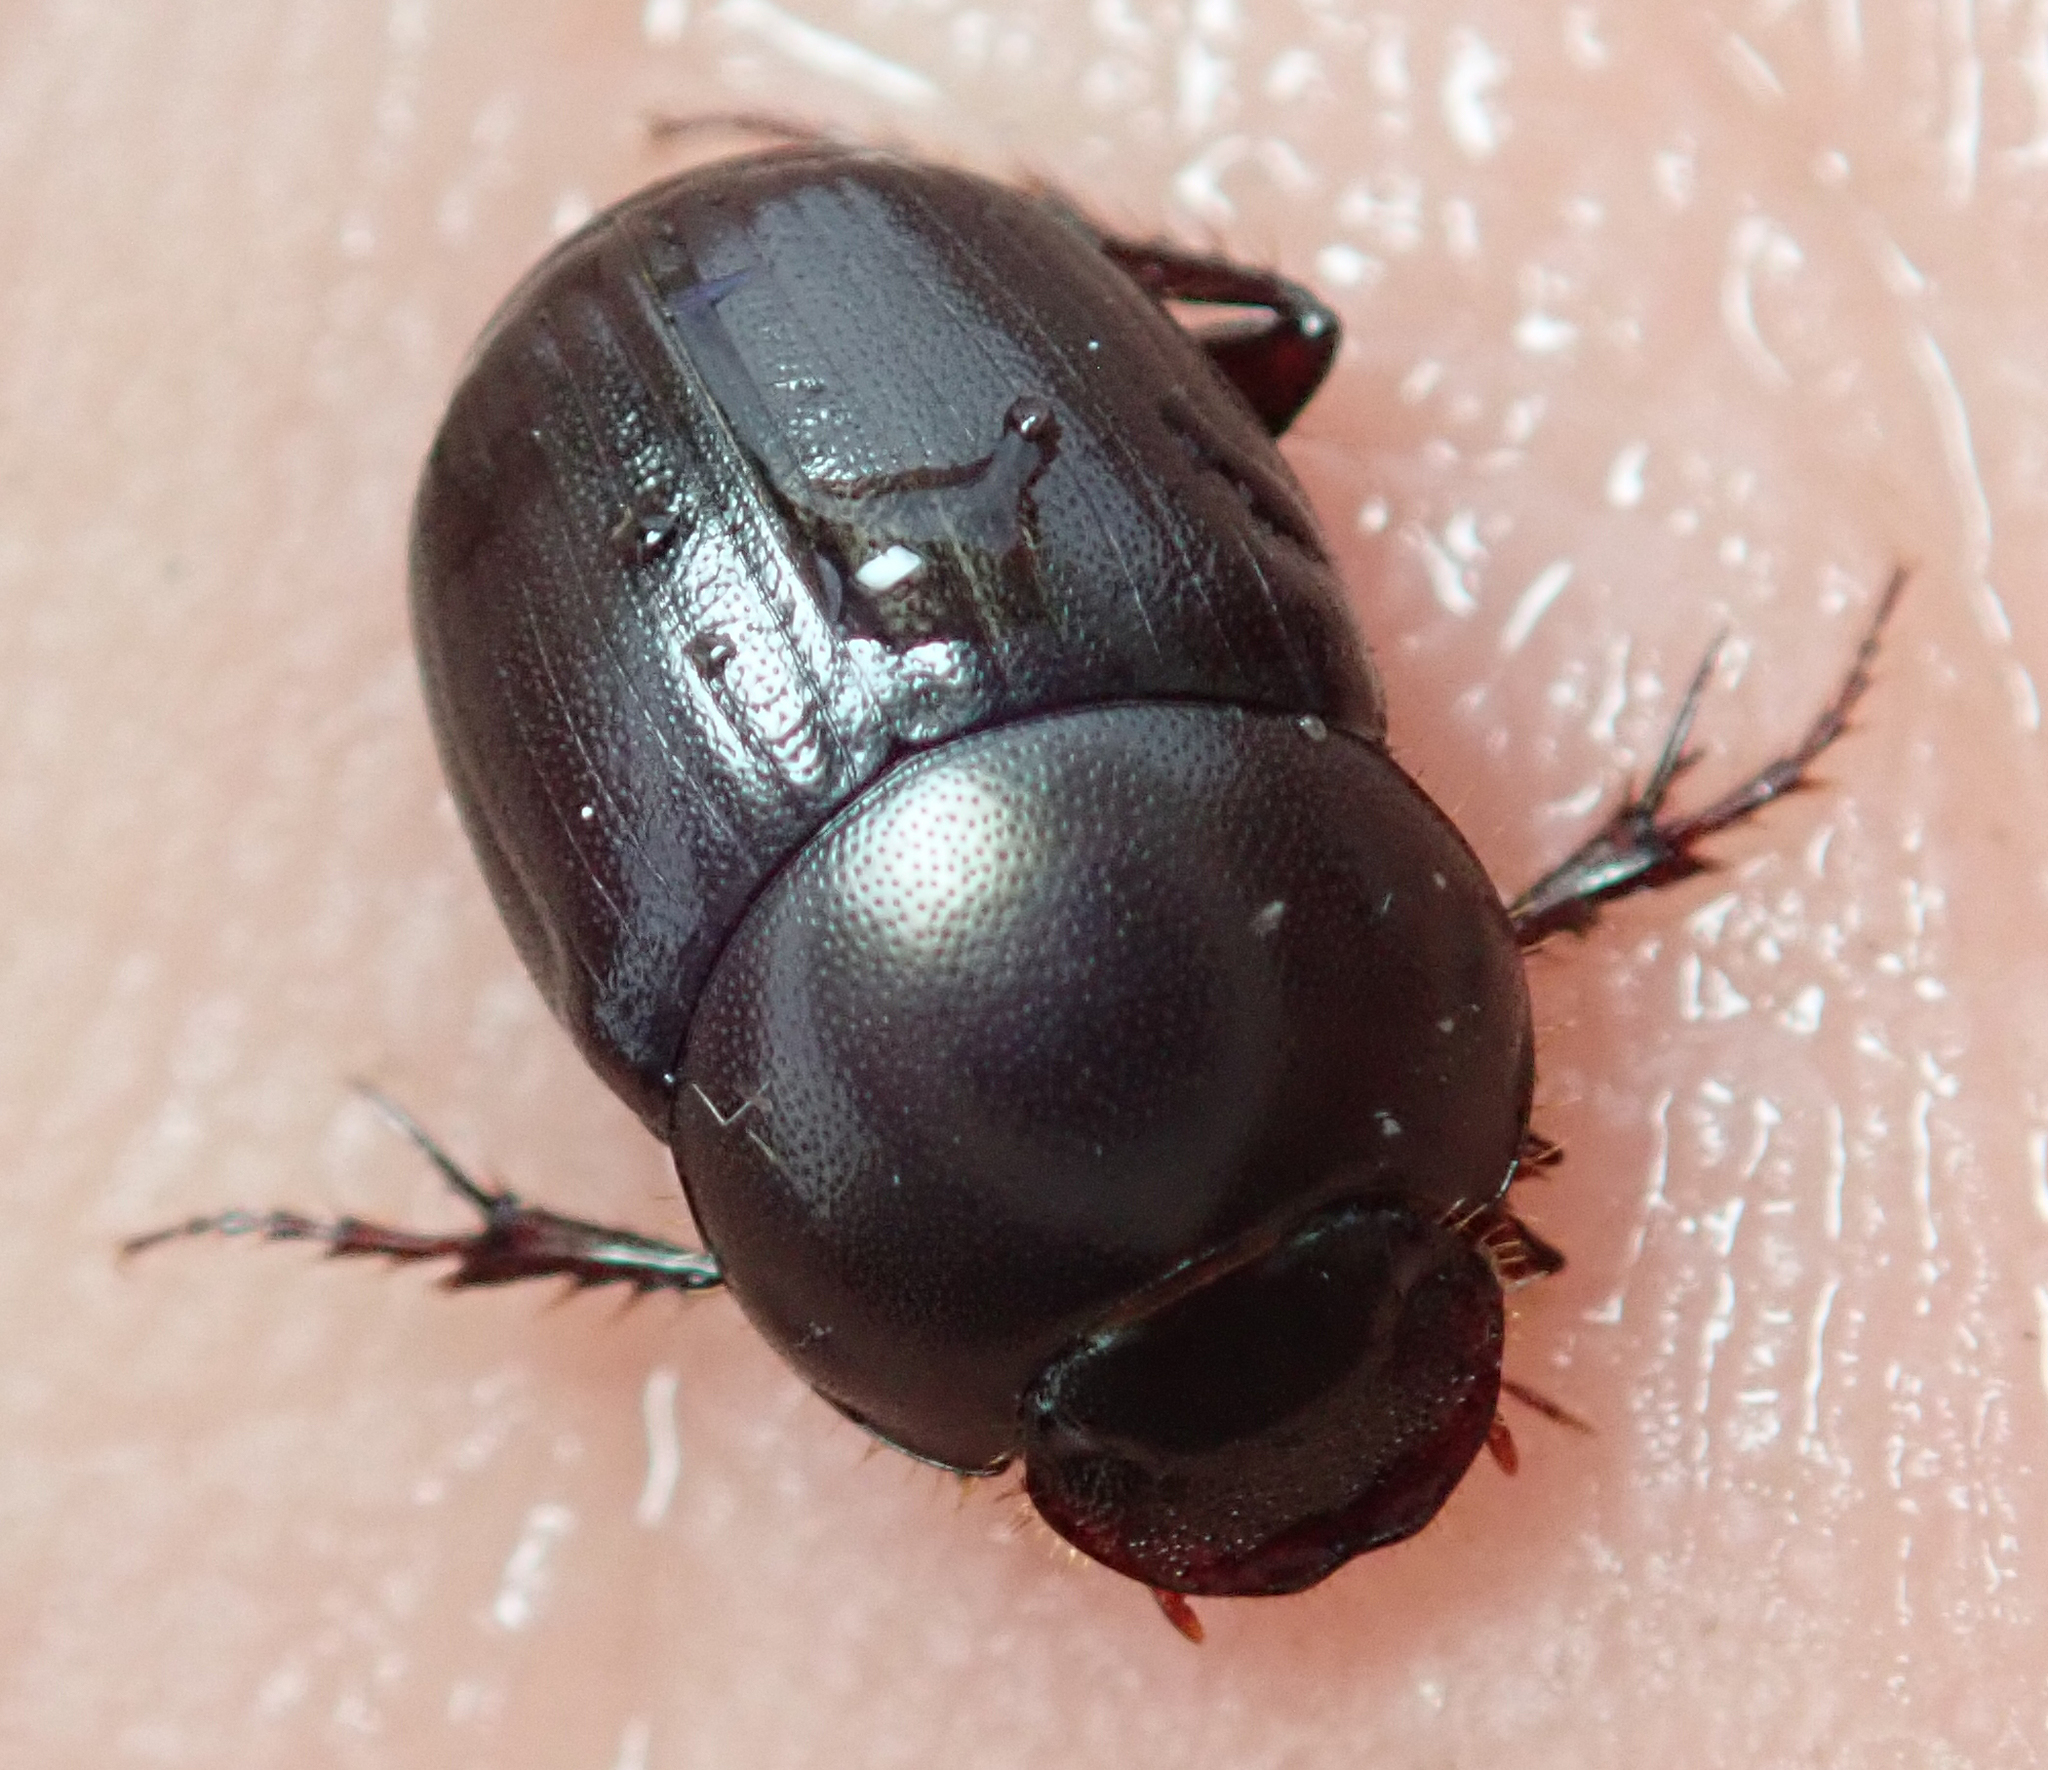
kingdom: Animalia
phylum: Arthropoda
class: Insecta
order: Coleoptera
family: Scarabaeidae
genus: Euonthophagus
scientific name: Euonthophagus carbonarius
